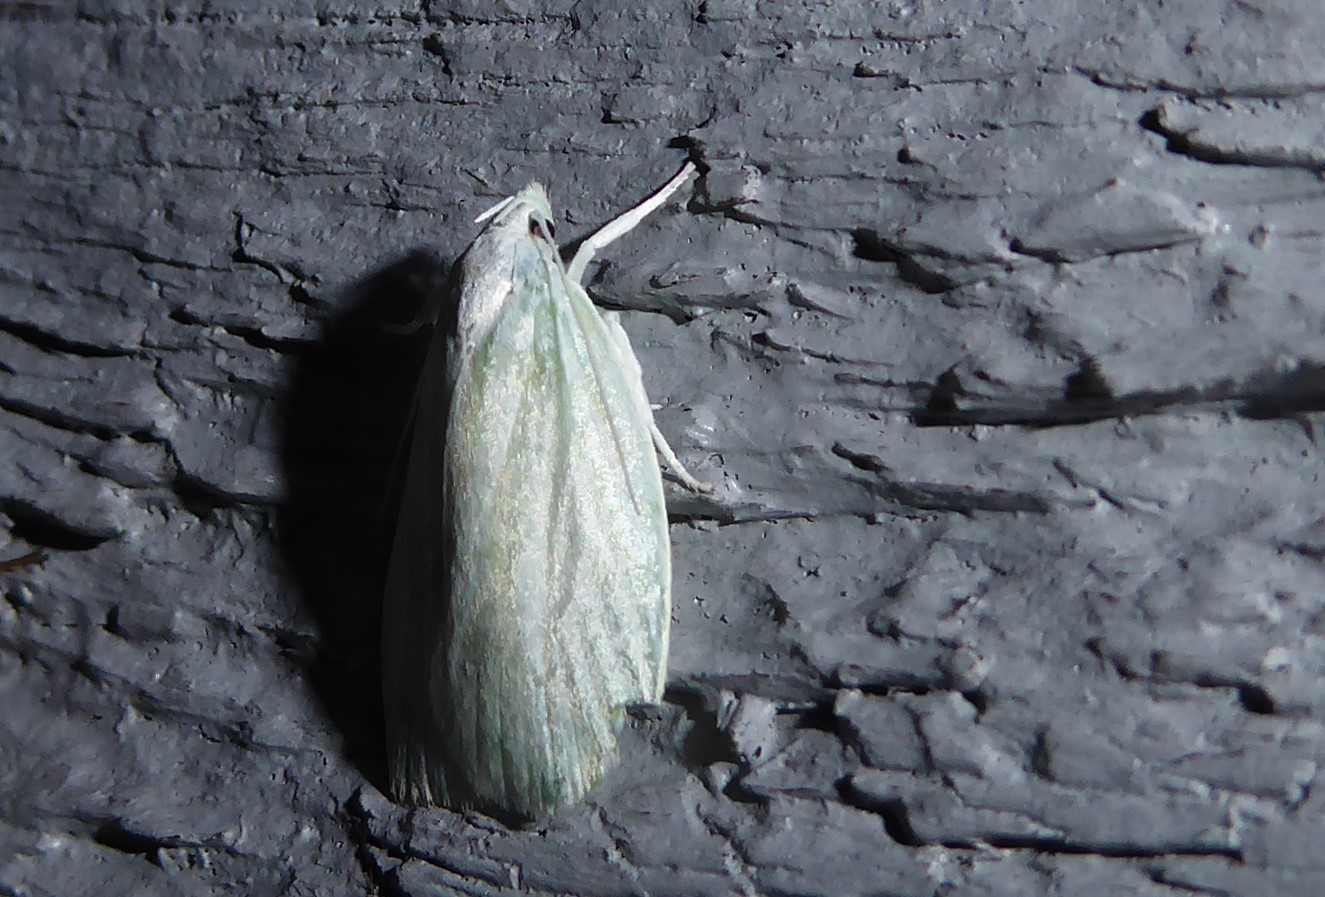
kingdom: Animalia
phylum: Arthropoda
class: Insecta
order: Lepidoptera
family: Oecophoridae
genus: Nymphostola
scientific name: Nymphostola galactina
